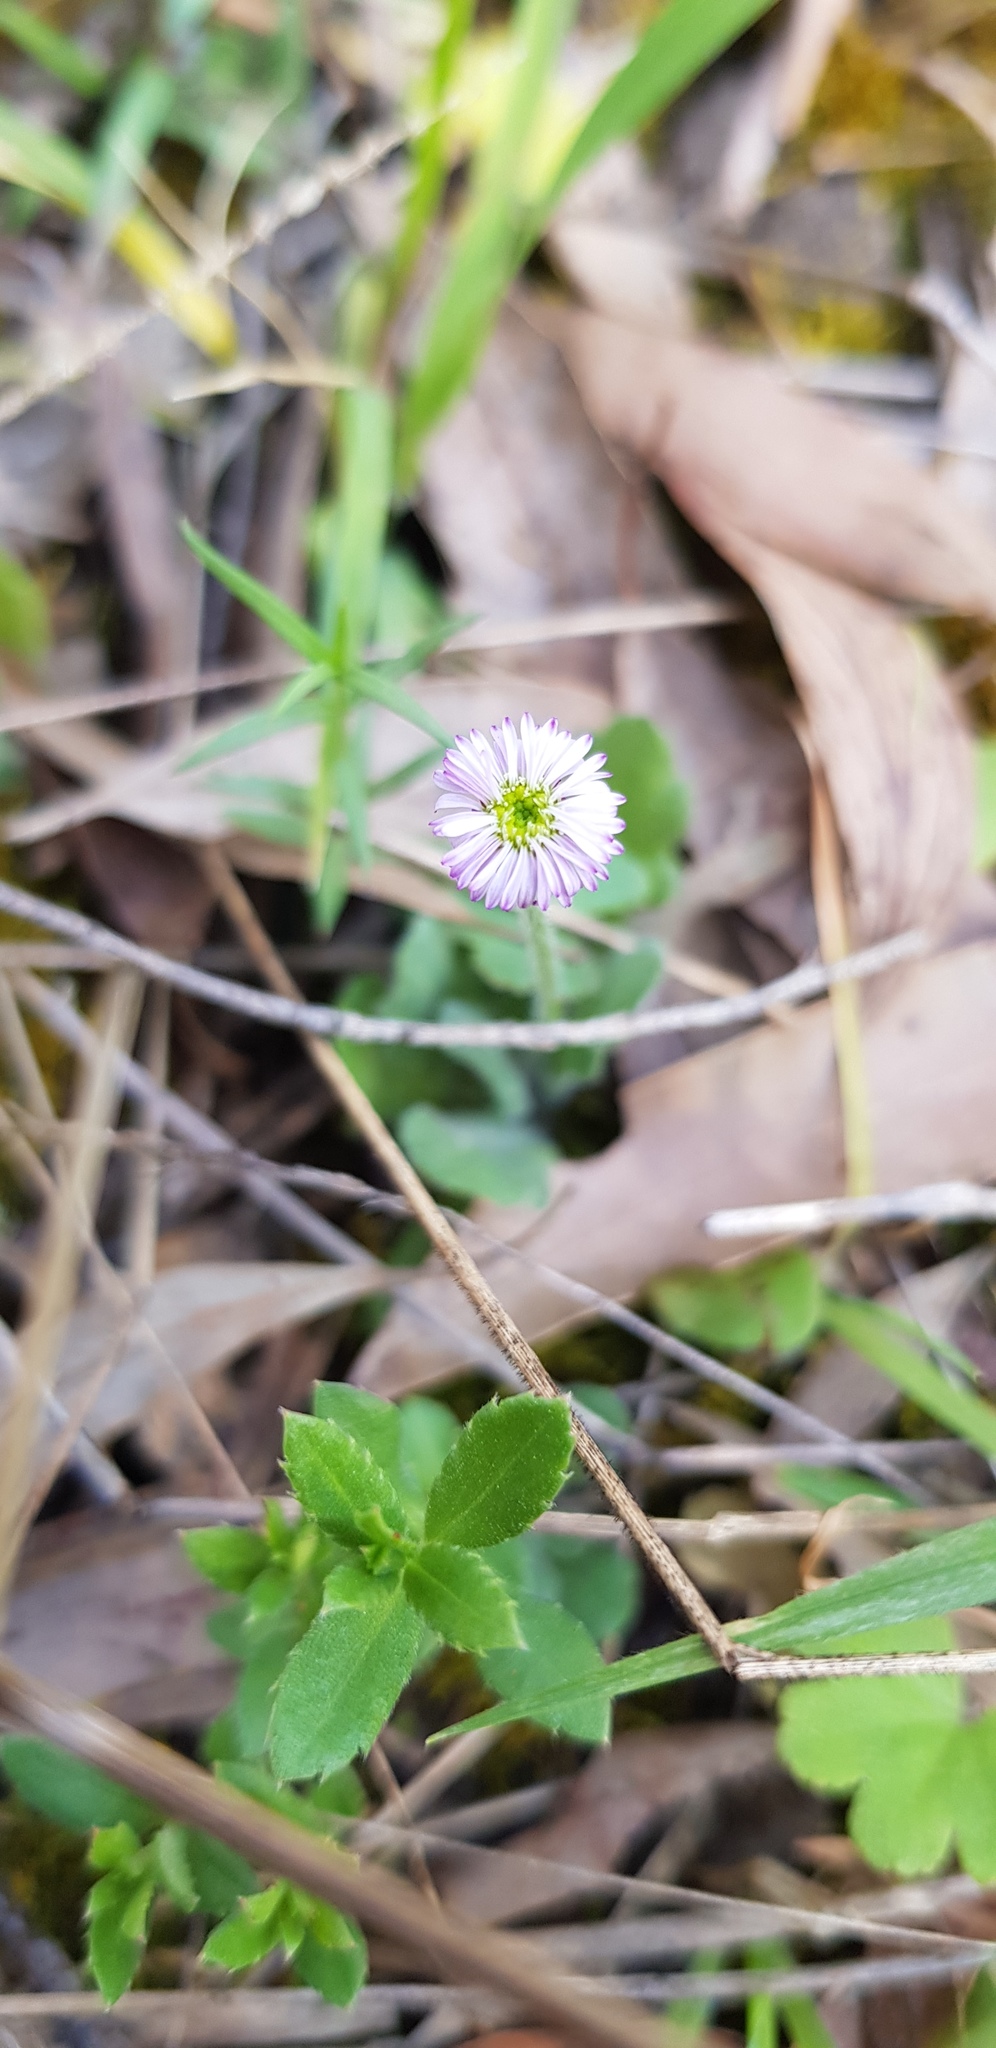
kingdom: Plantae
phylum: Tracheophyta
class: Magnoliopsida
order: Asterales
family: Asteraceae
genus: Lagenophora
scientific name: Lagenophora stipitata
